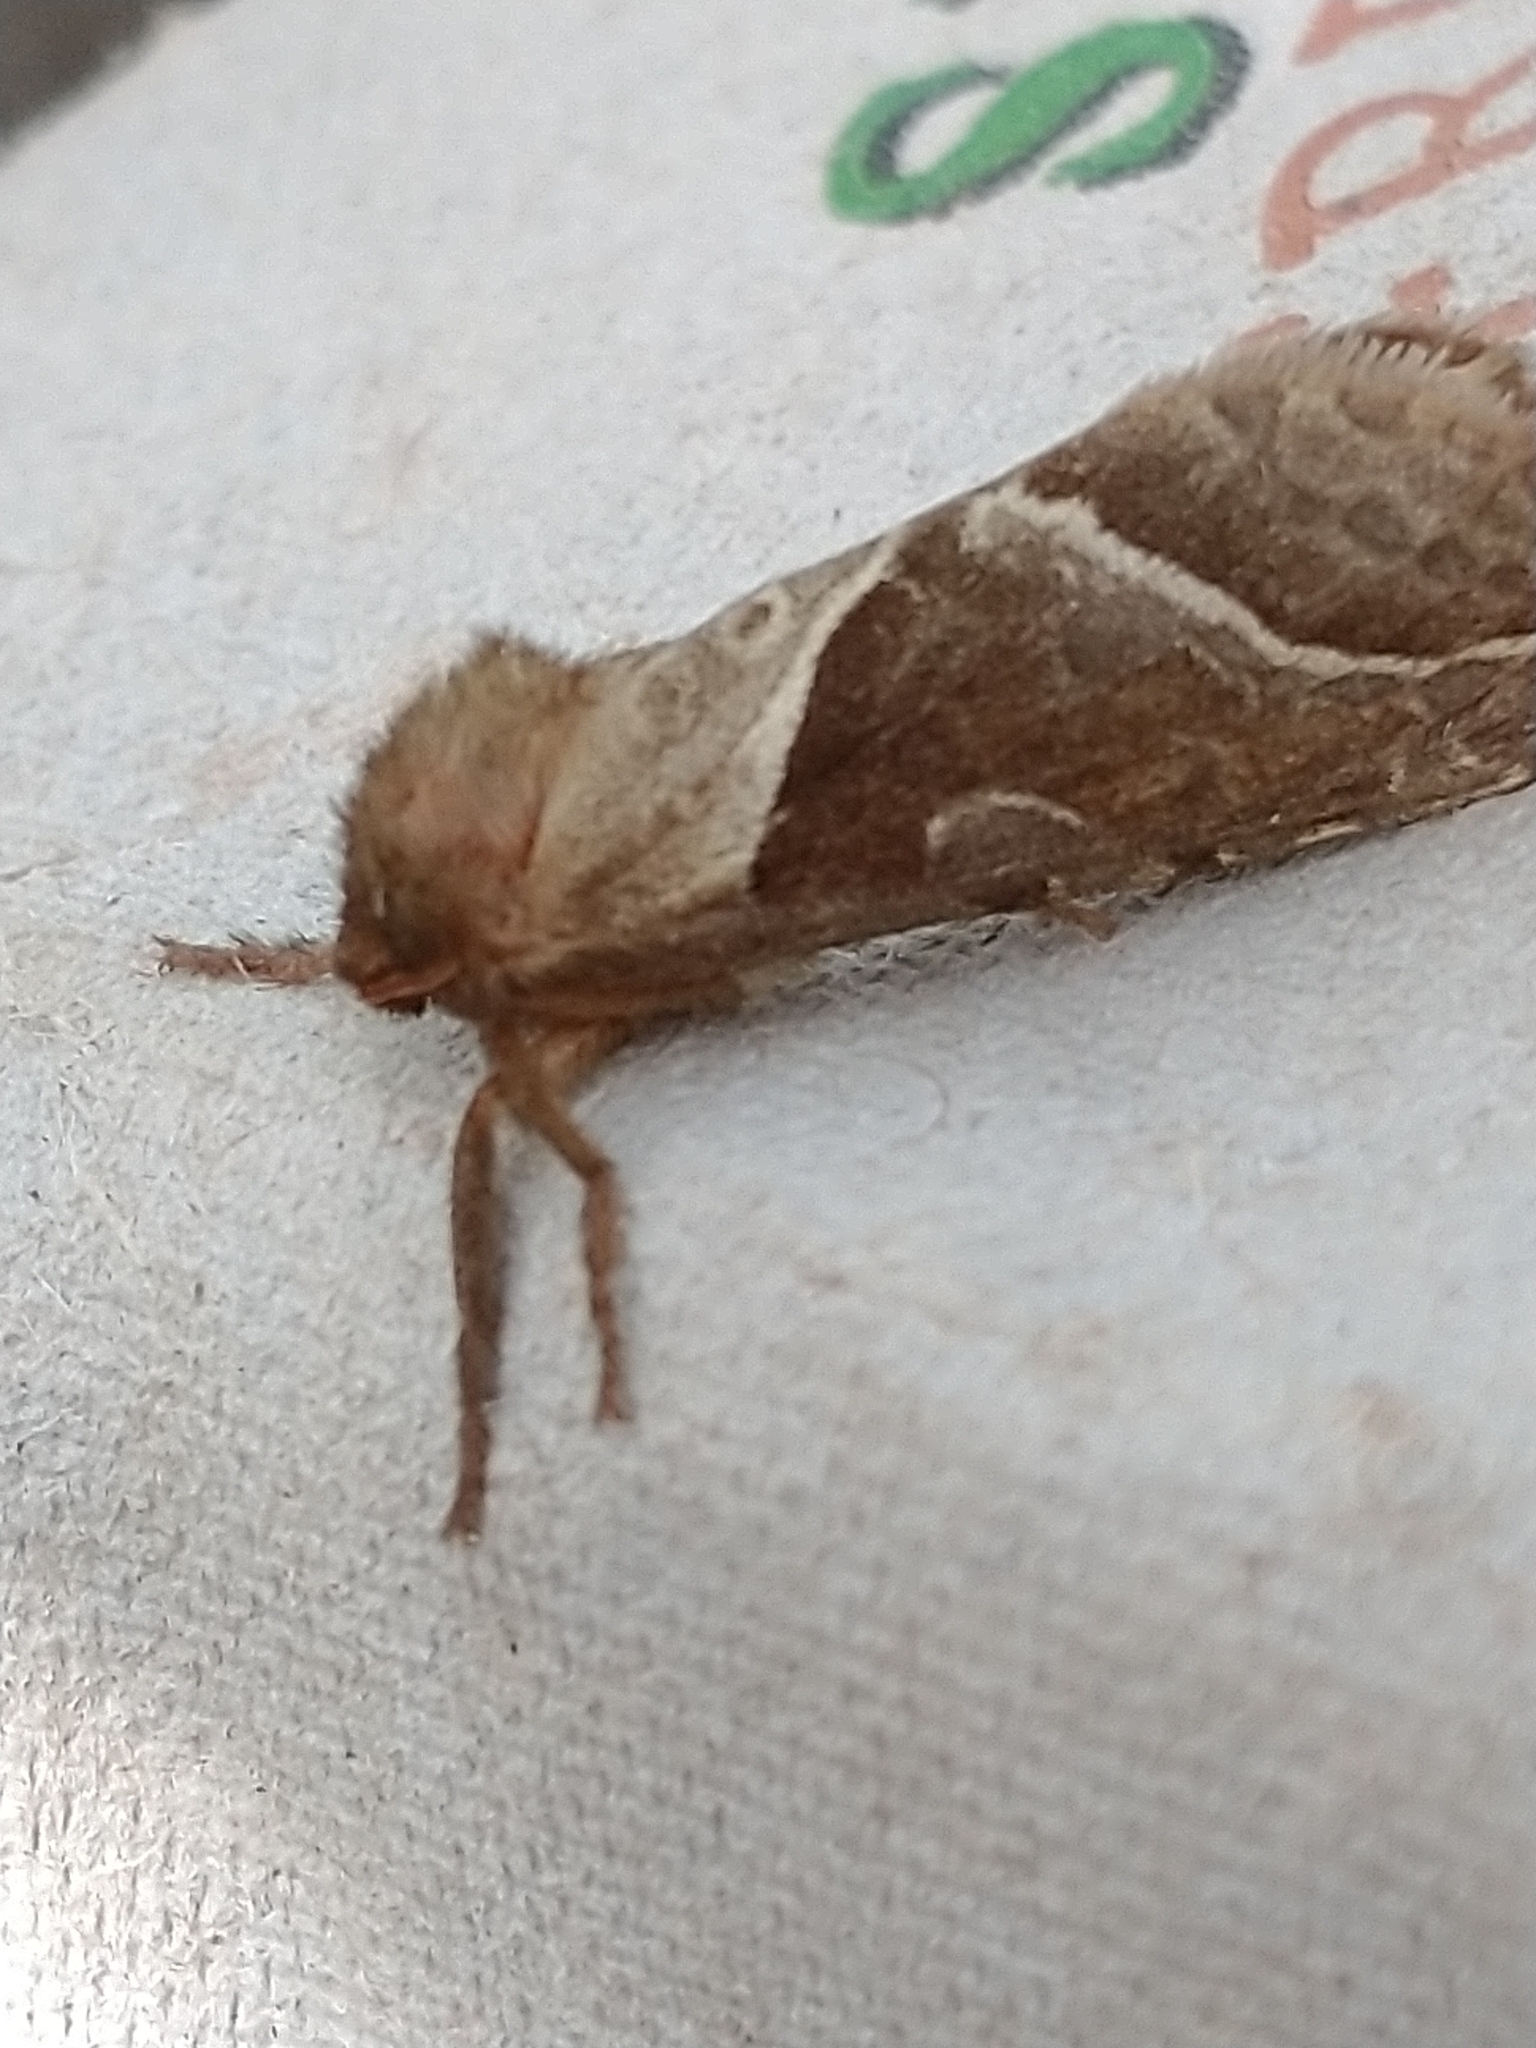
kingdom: Animalia
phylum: Arthropoda
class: Insecta
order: Lepidoptera
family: Hepialidae
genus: Triodia
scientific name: Triodia sylvina
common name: Orange swift
